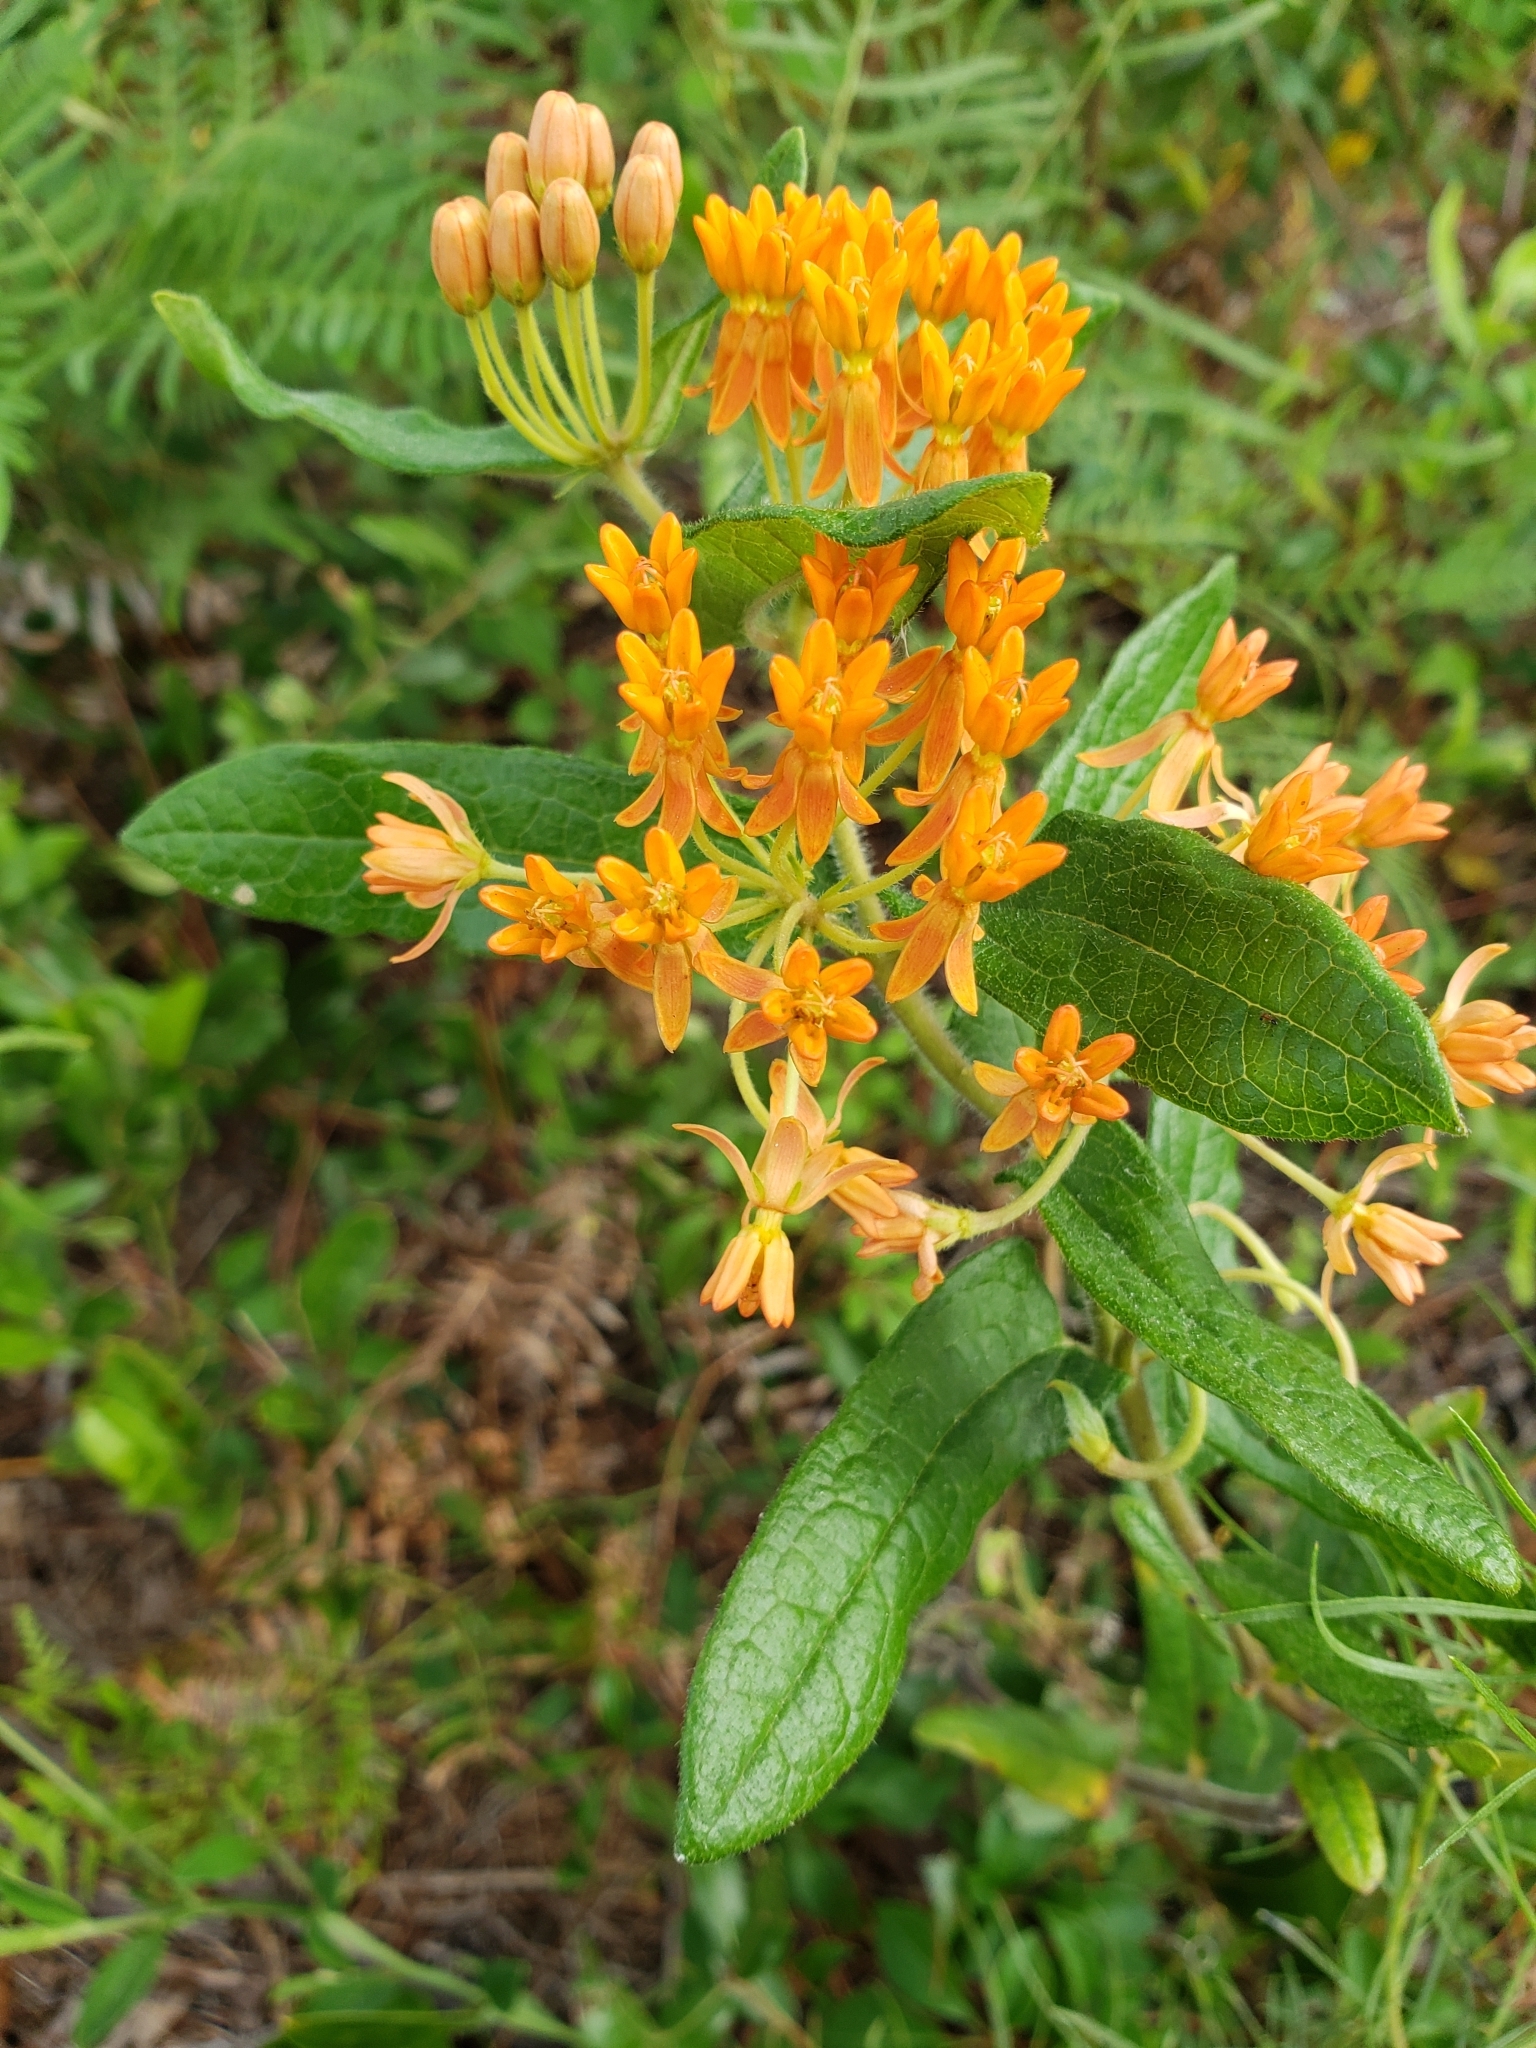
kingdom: Plantae
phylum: Tracheophyta
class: Magnoliopsida
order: Gentianales
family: Apocynaceae
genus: Asclepias
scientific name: Asclepias tuberosa
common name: Butterfly milkweed
